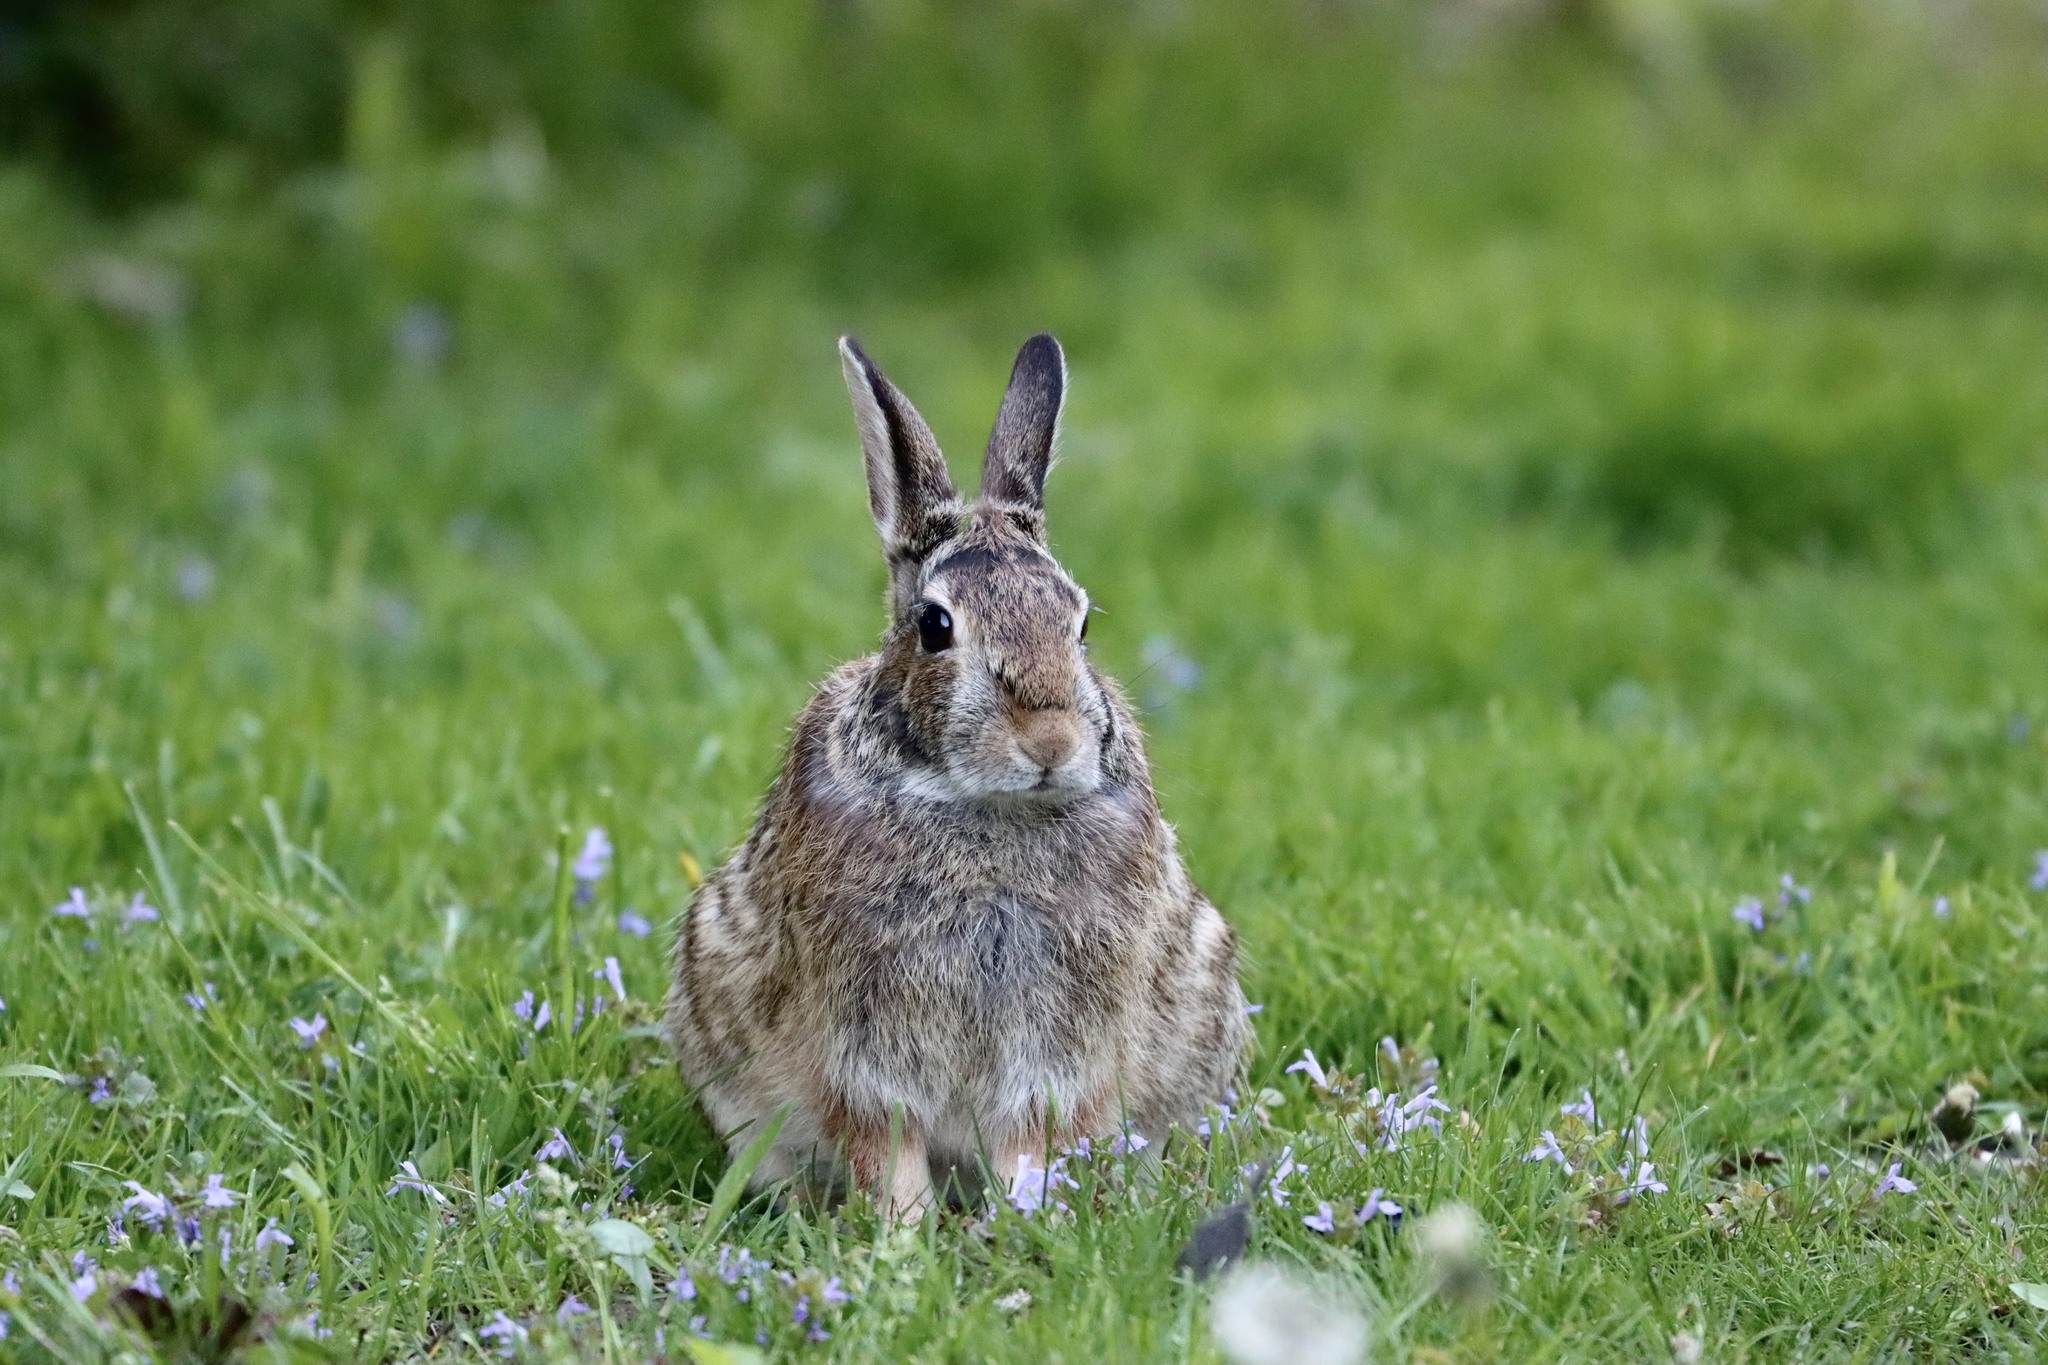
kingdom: Animalia
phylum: Chordata
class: Mammalia
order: Lagomorpha
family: Leporidae
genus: Sylvilagus
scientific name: Sylvilagus floridanus
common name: Eastern cottontail
